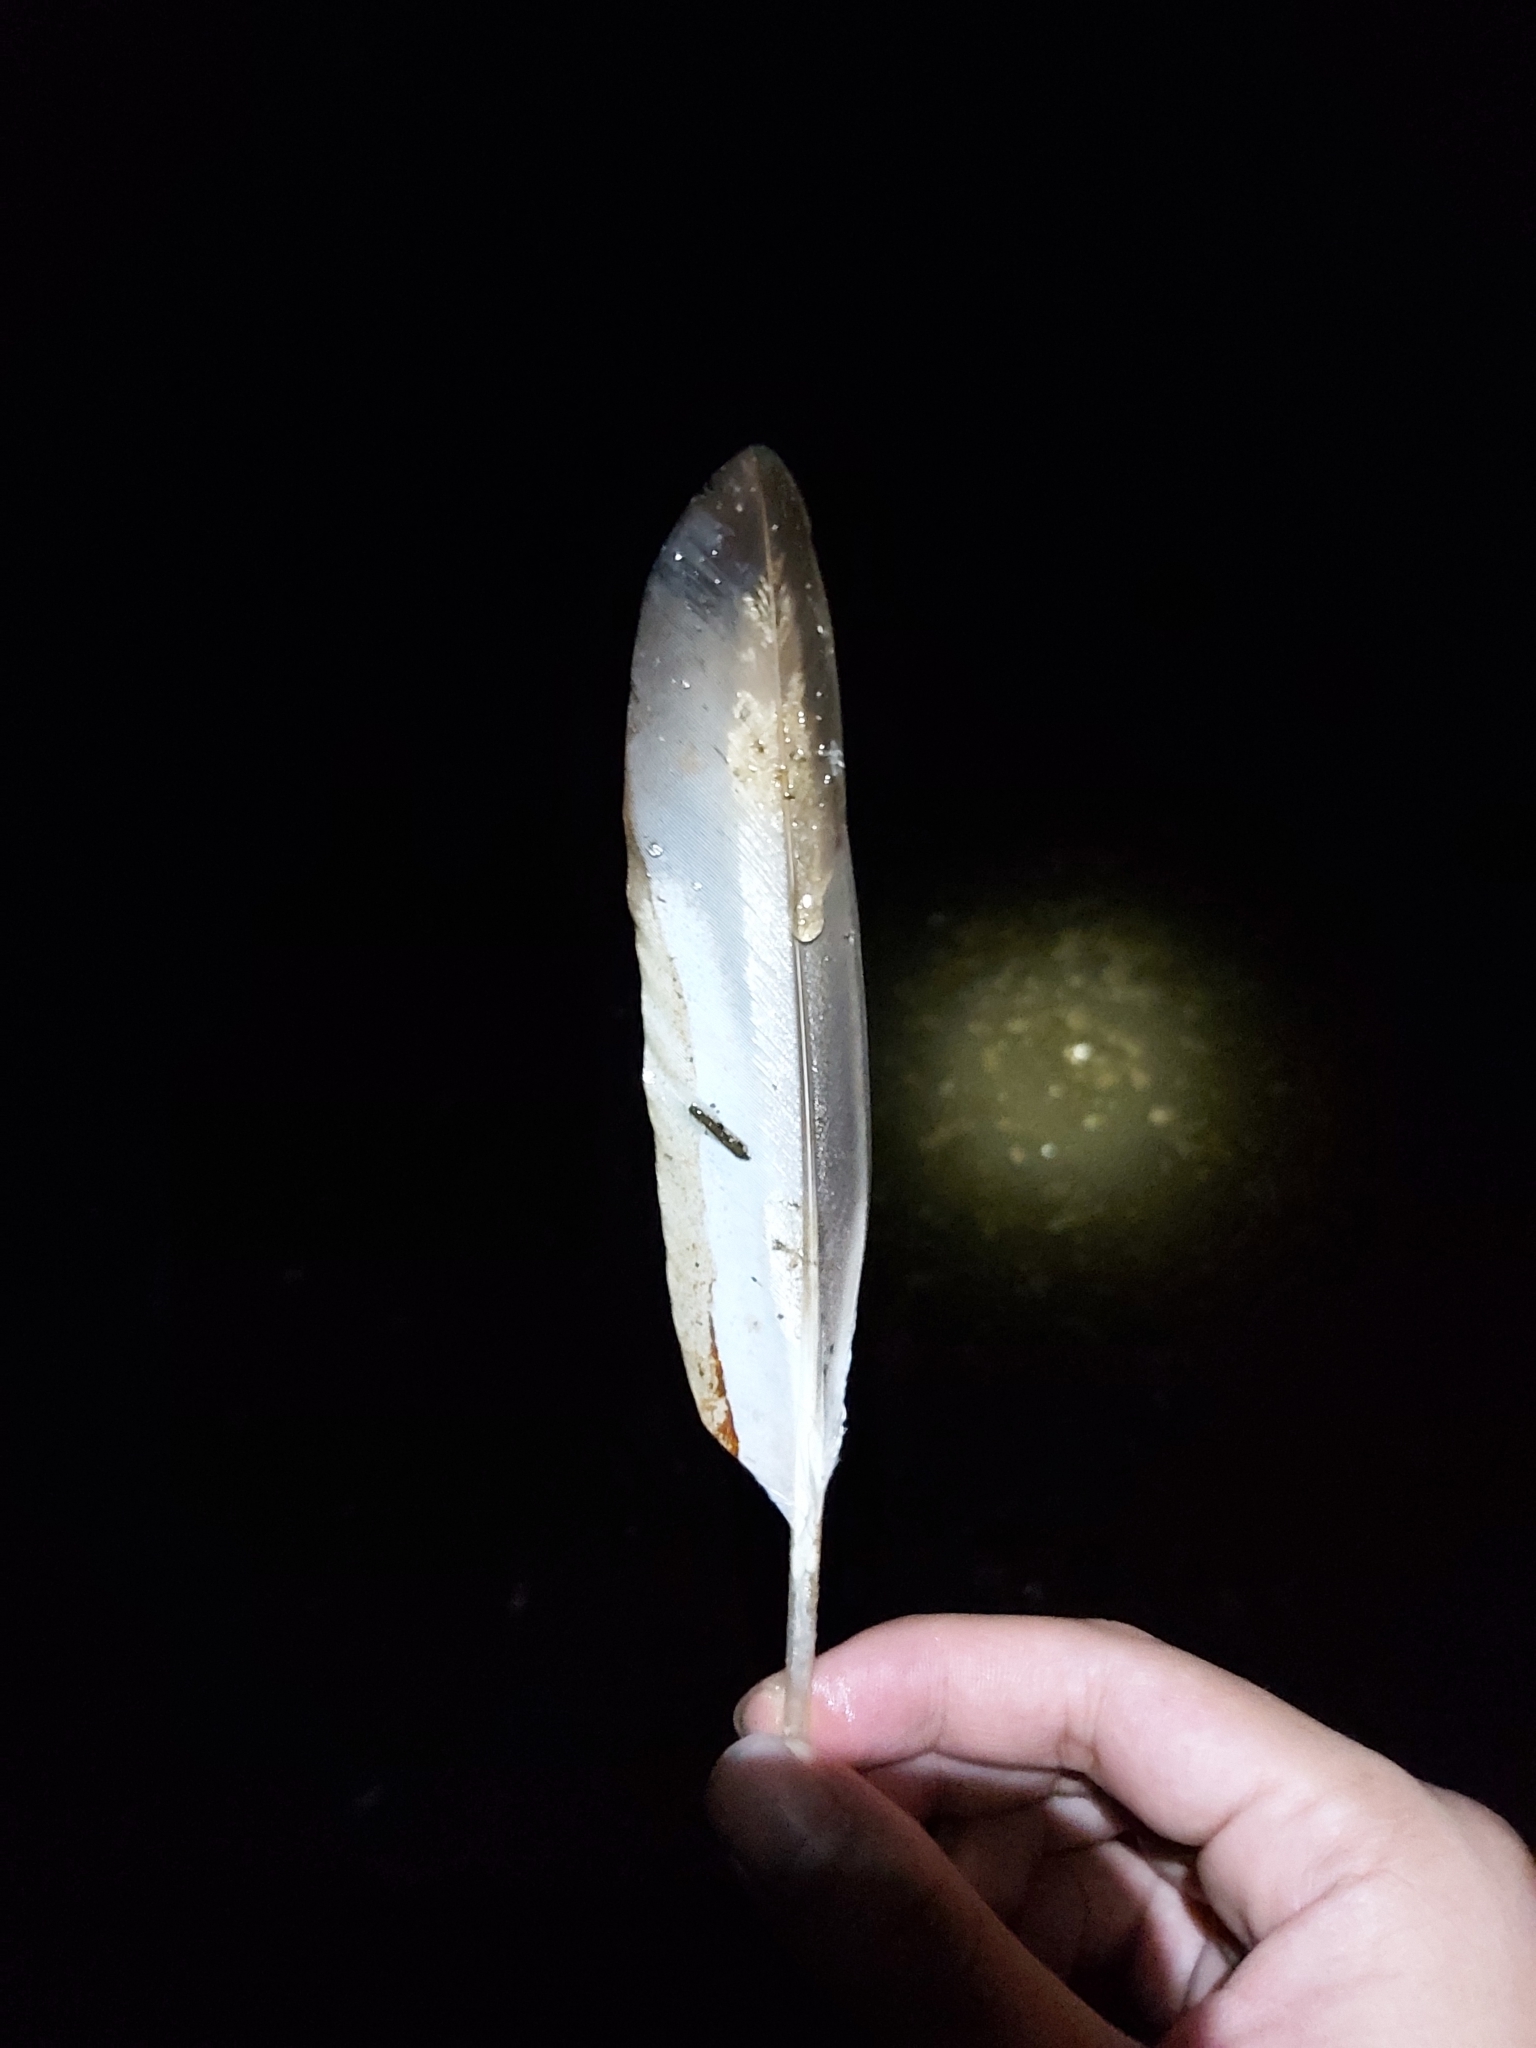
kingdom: Animalia
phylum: Chordata
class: Aves
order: Anseriformes
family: Anatidae
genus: Chenonetta
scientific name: Chenonetta jubata
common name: Maned duck
